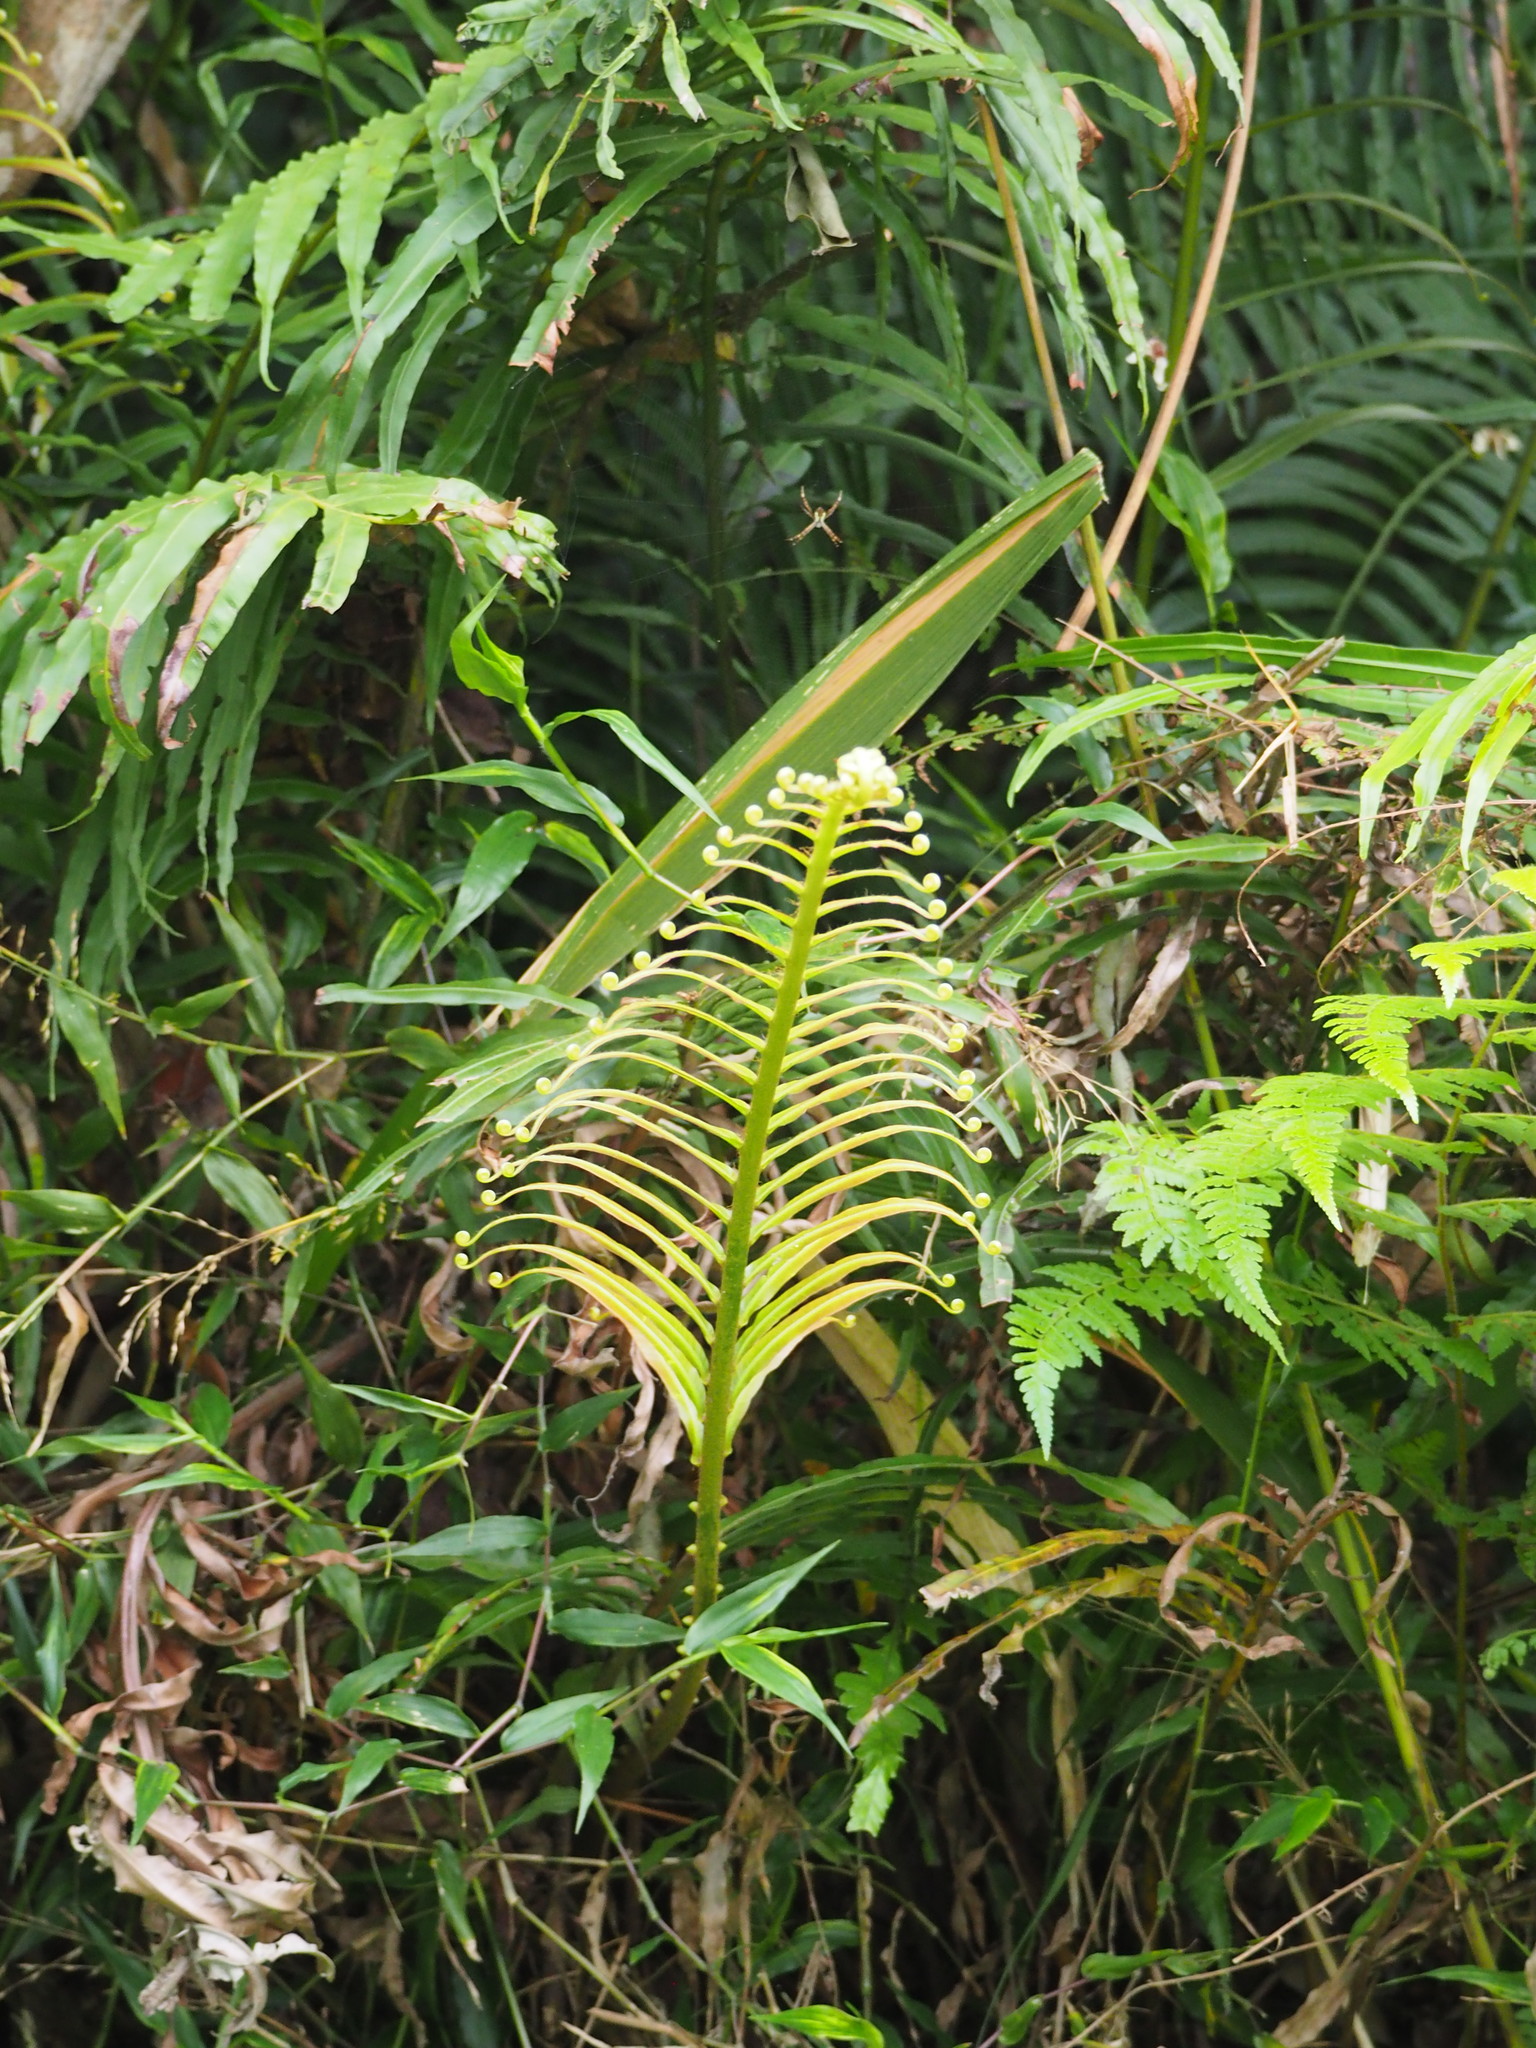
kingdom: Plantae
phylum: Tracheophyta
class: Polypodiopsida
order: Polypodiales
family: Blechnaceae
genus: Blechnopsis
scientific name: Blechnopsis orientalis
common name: Oriental blechnum
